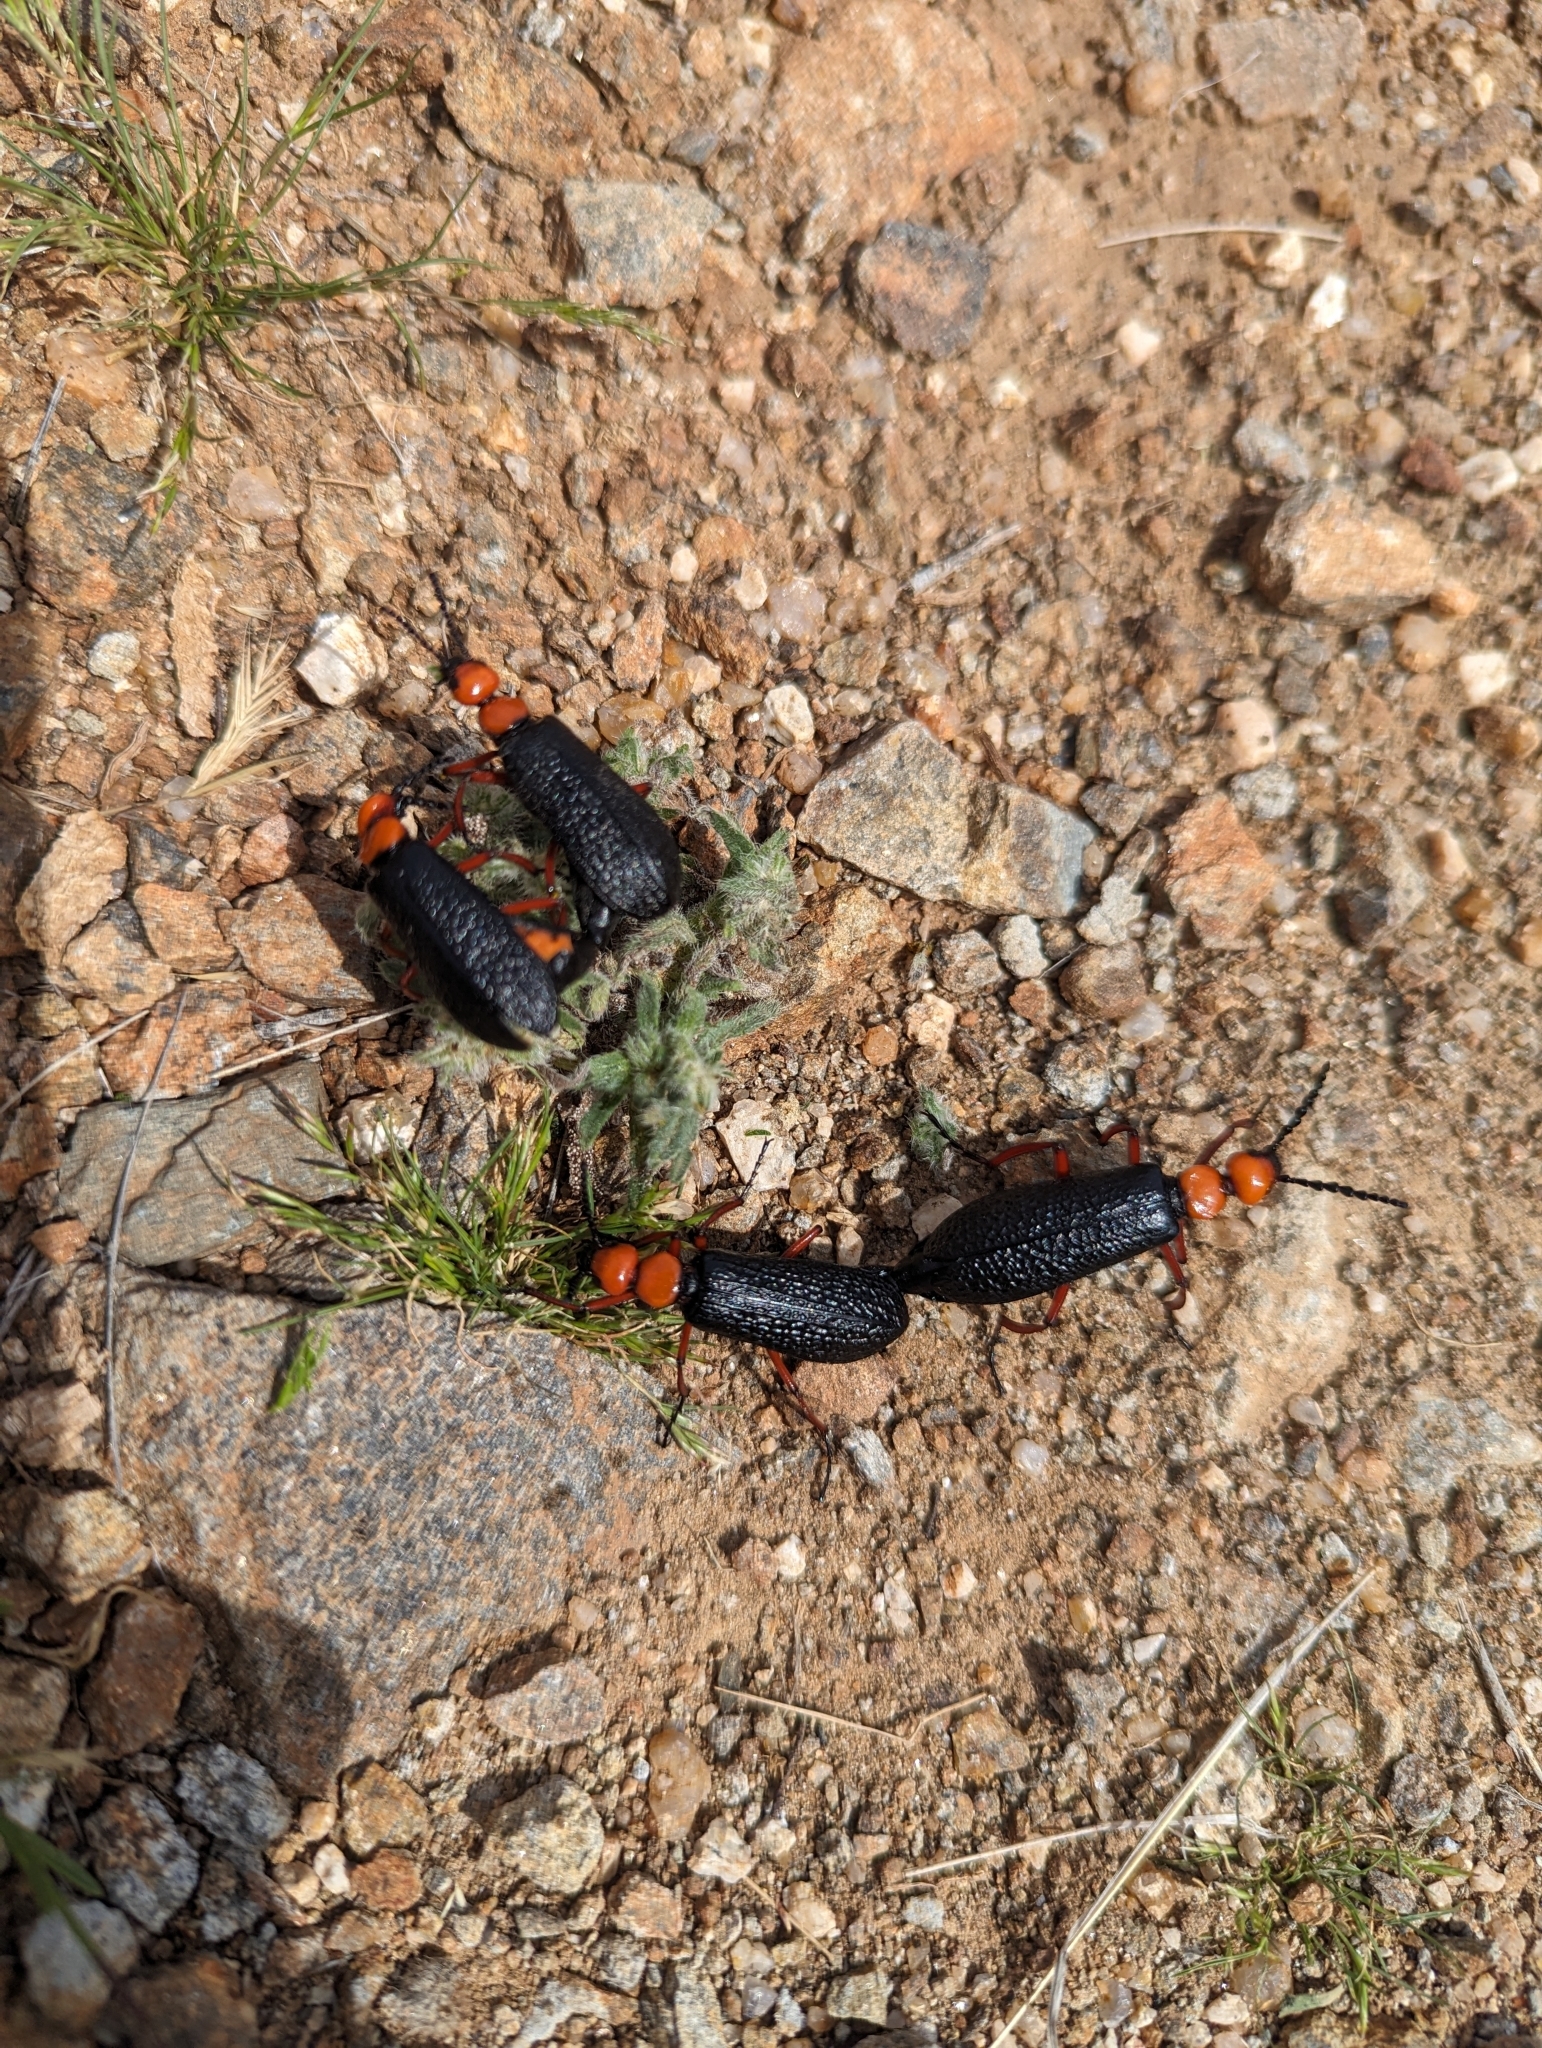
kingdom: Animalia
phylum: Arthropoda
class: Insecta
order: Coleoptera
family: Meloidae
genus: Lytta
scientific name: Lytta magister
